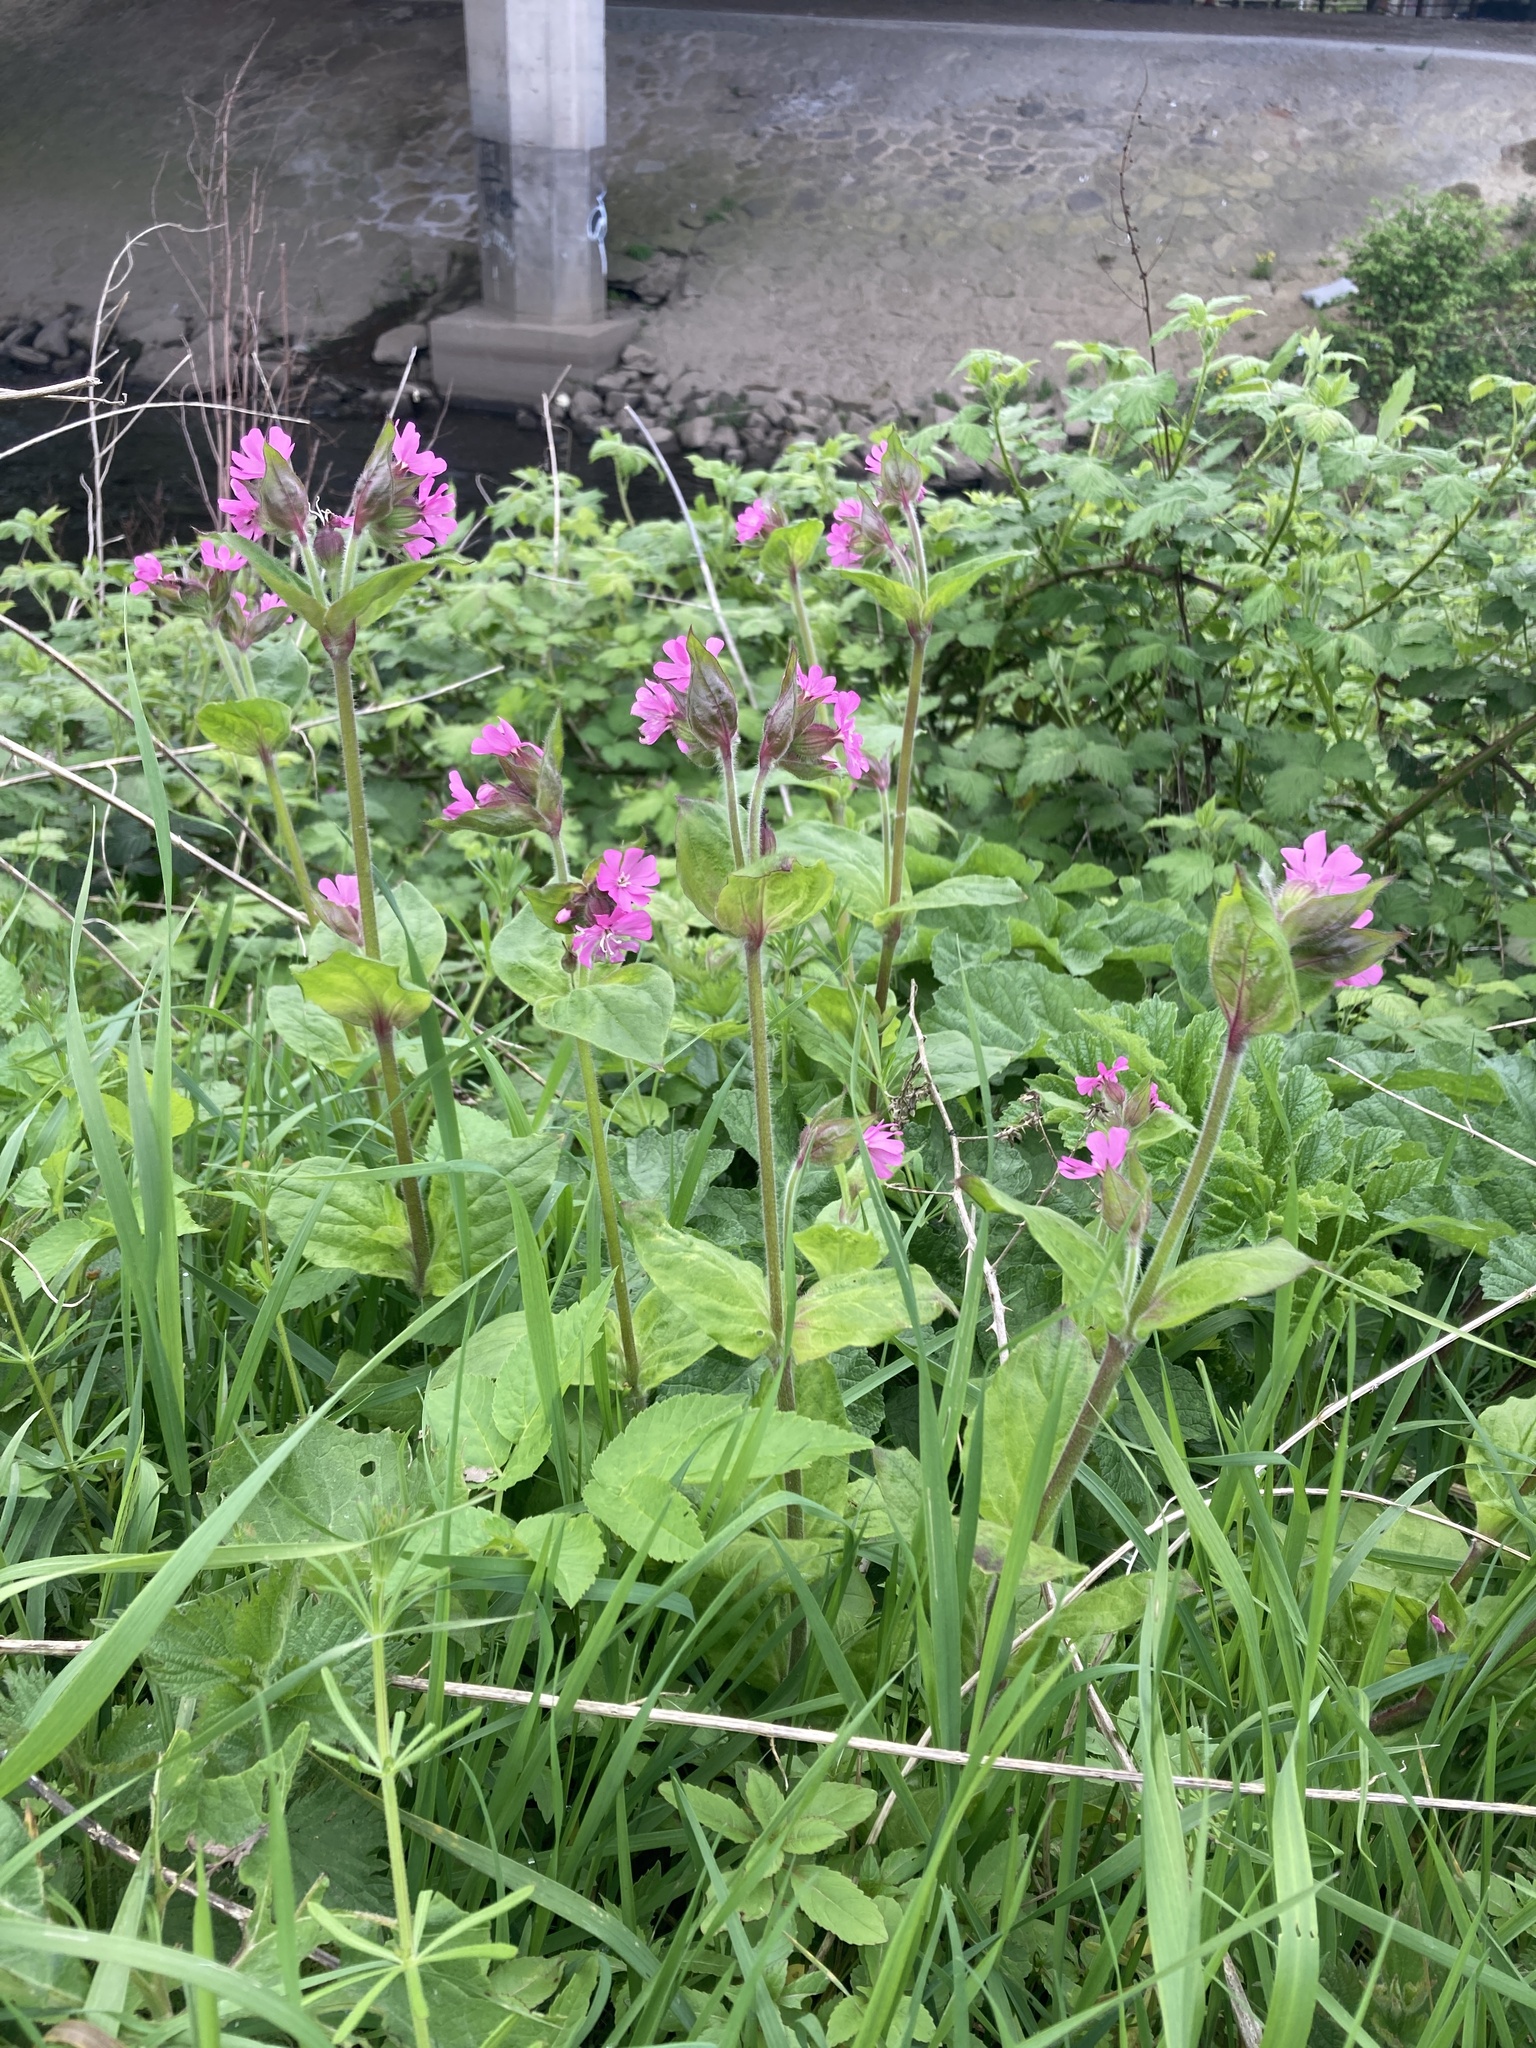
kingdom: Plantae
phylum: Tracheophyta
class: Magnoliopsida
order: Caryophyllales
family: Caryophyllaceae
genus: Silene
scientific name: Silene dioica
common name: Red campion
